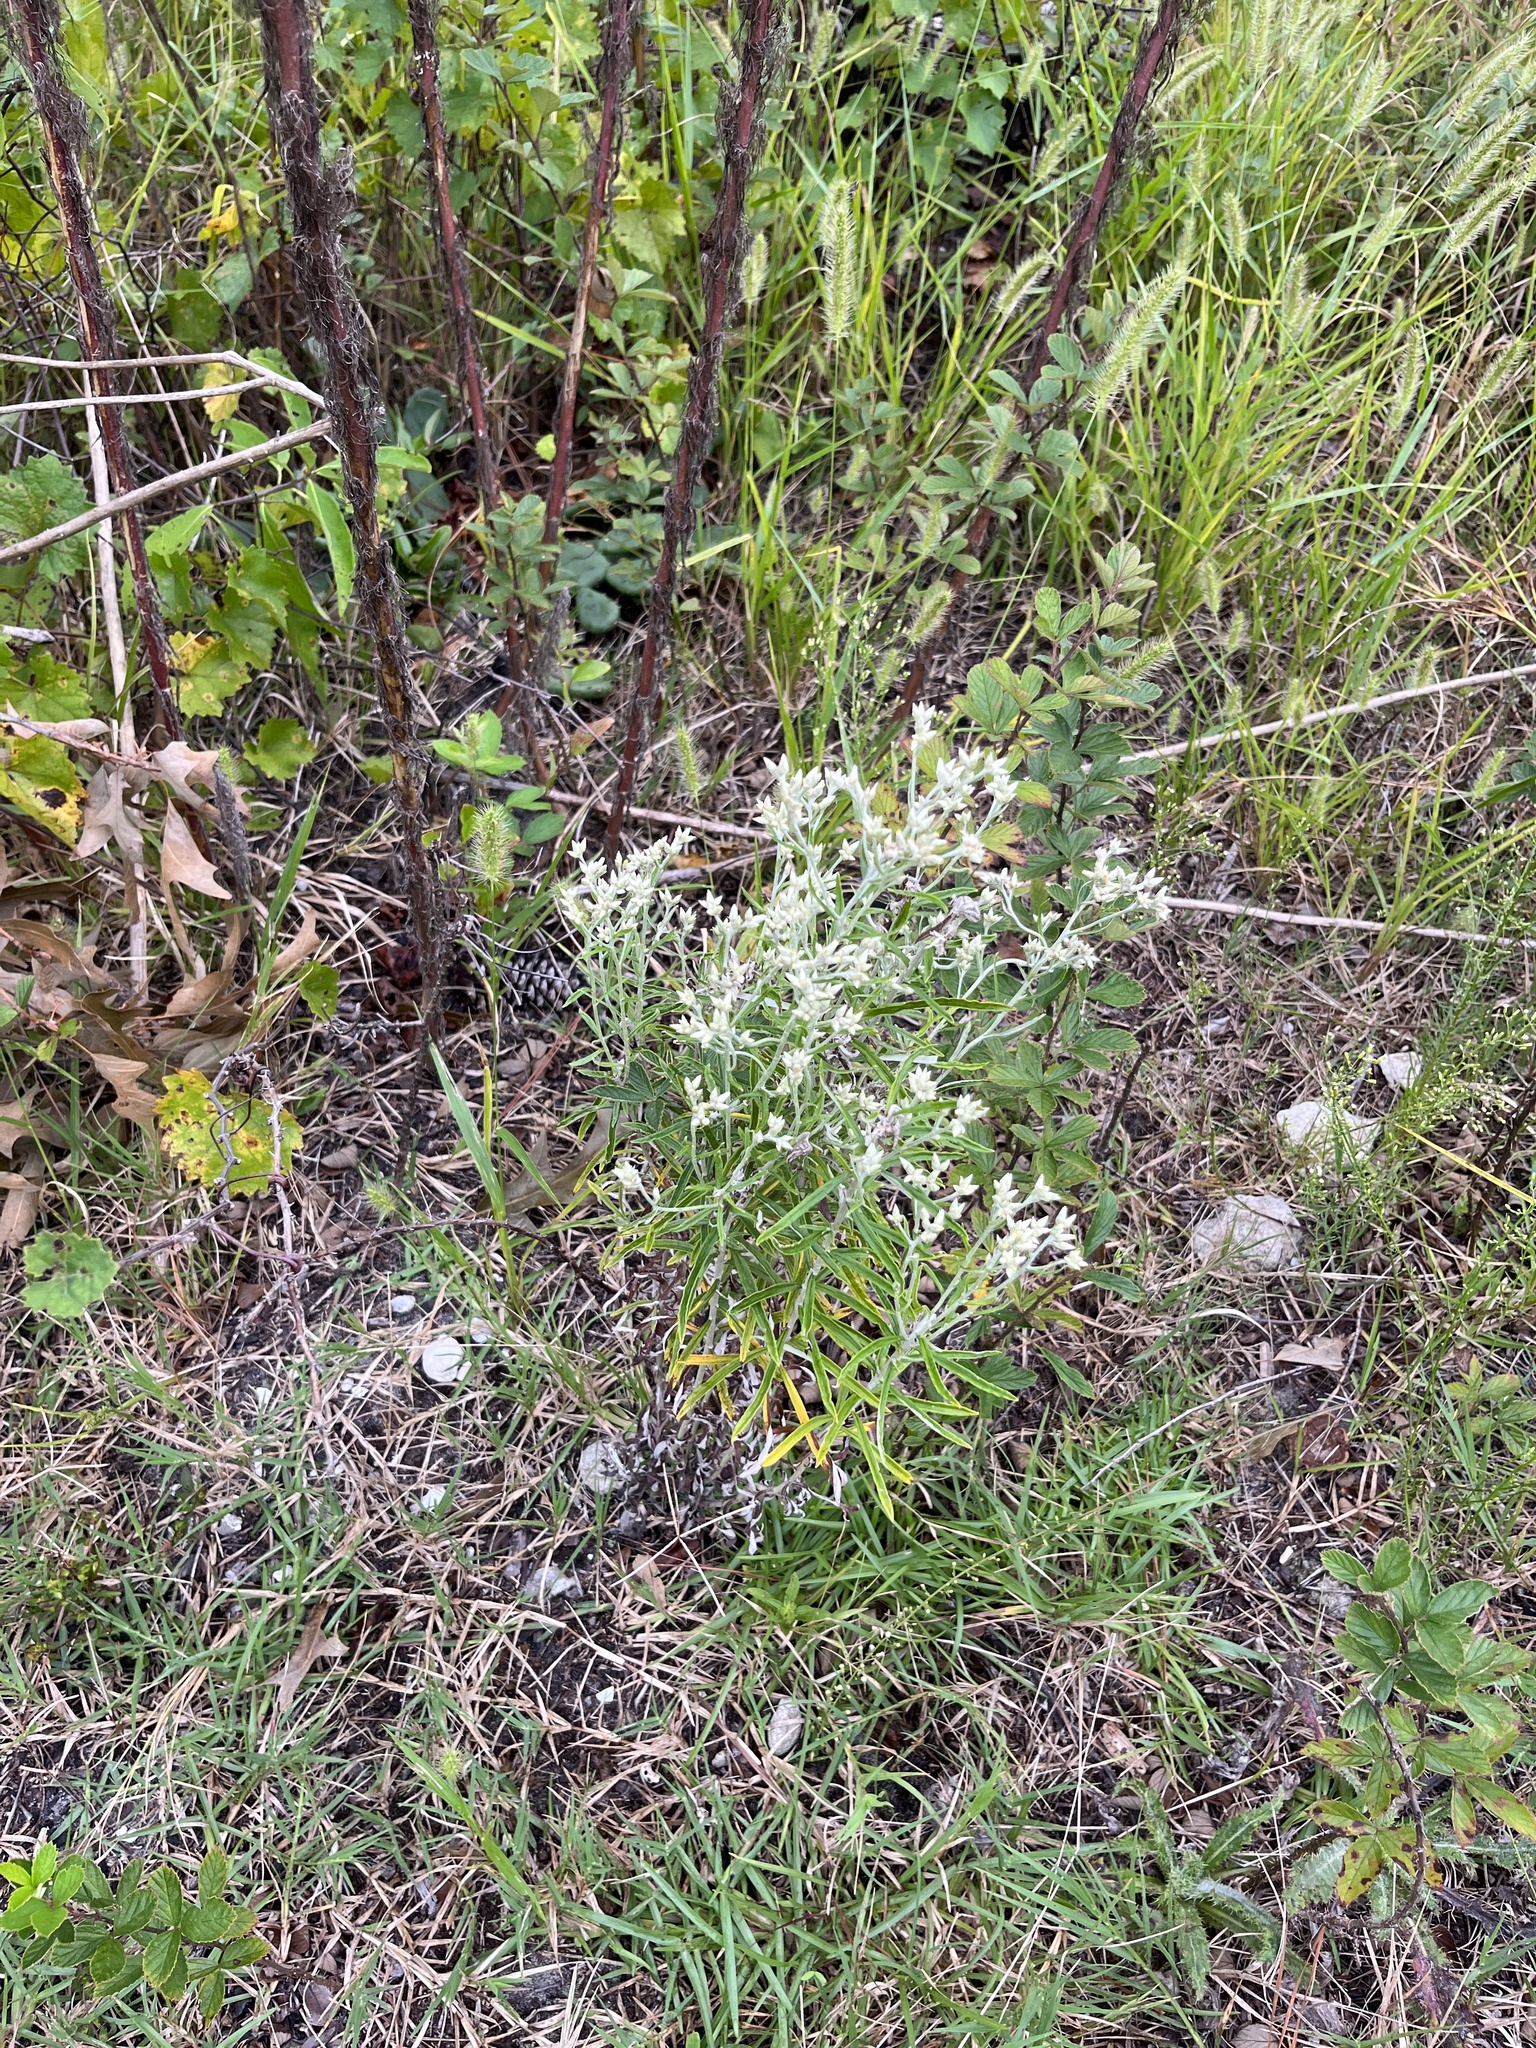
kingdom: Plantae
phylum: Tracheophyta
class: Magnoliopsida
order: Asterales
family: Asteraceae
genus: Pseudognaphalium
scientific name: Pseudognaphalium obtusifolium
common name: Eastern rabbit-tobacco
